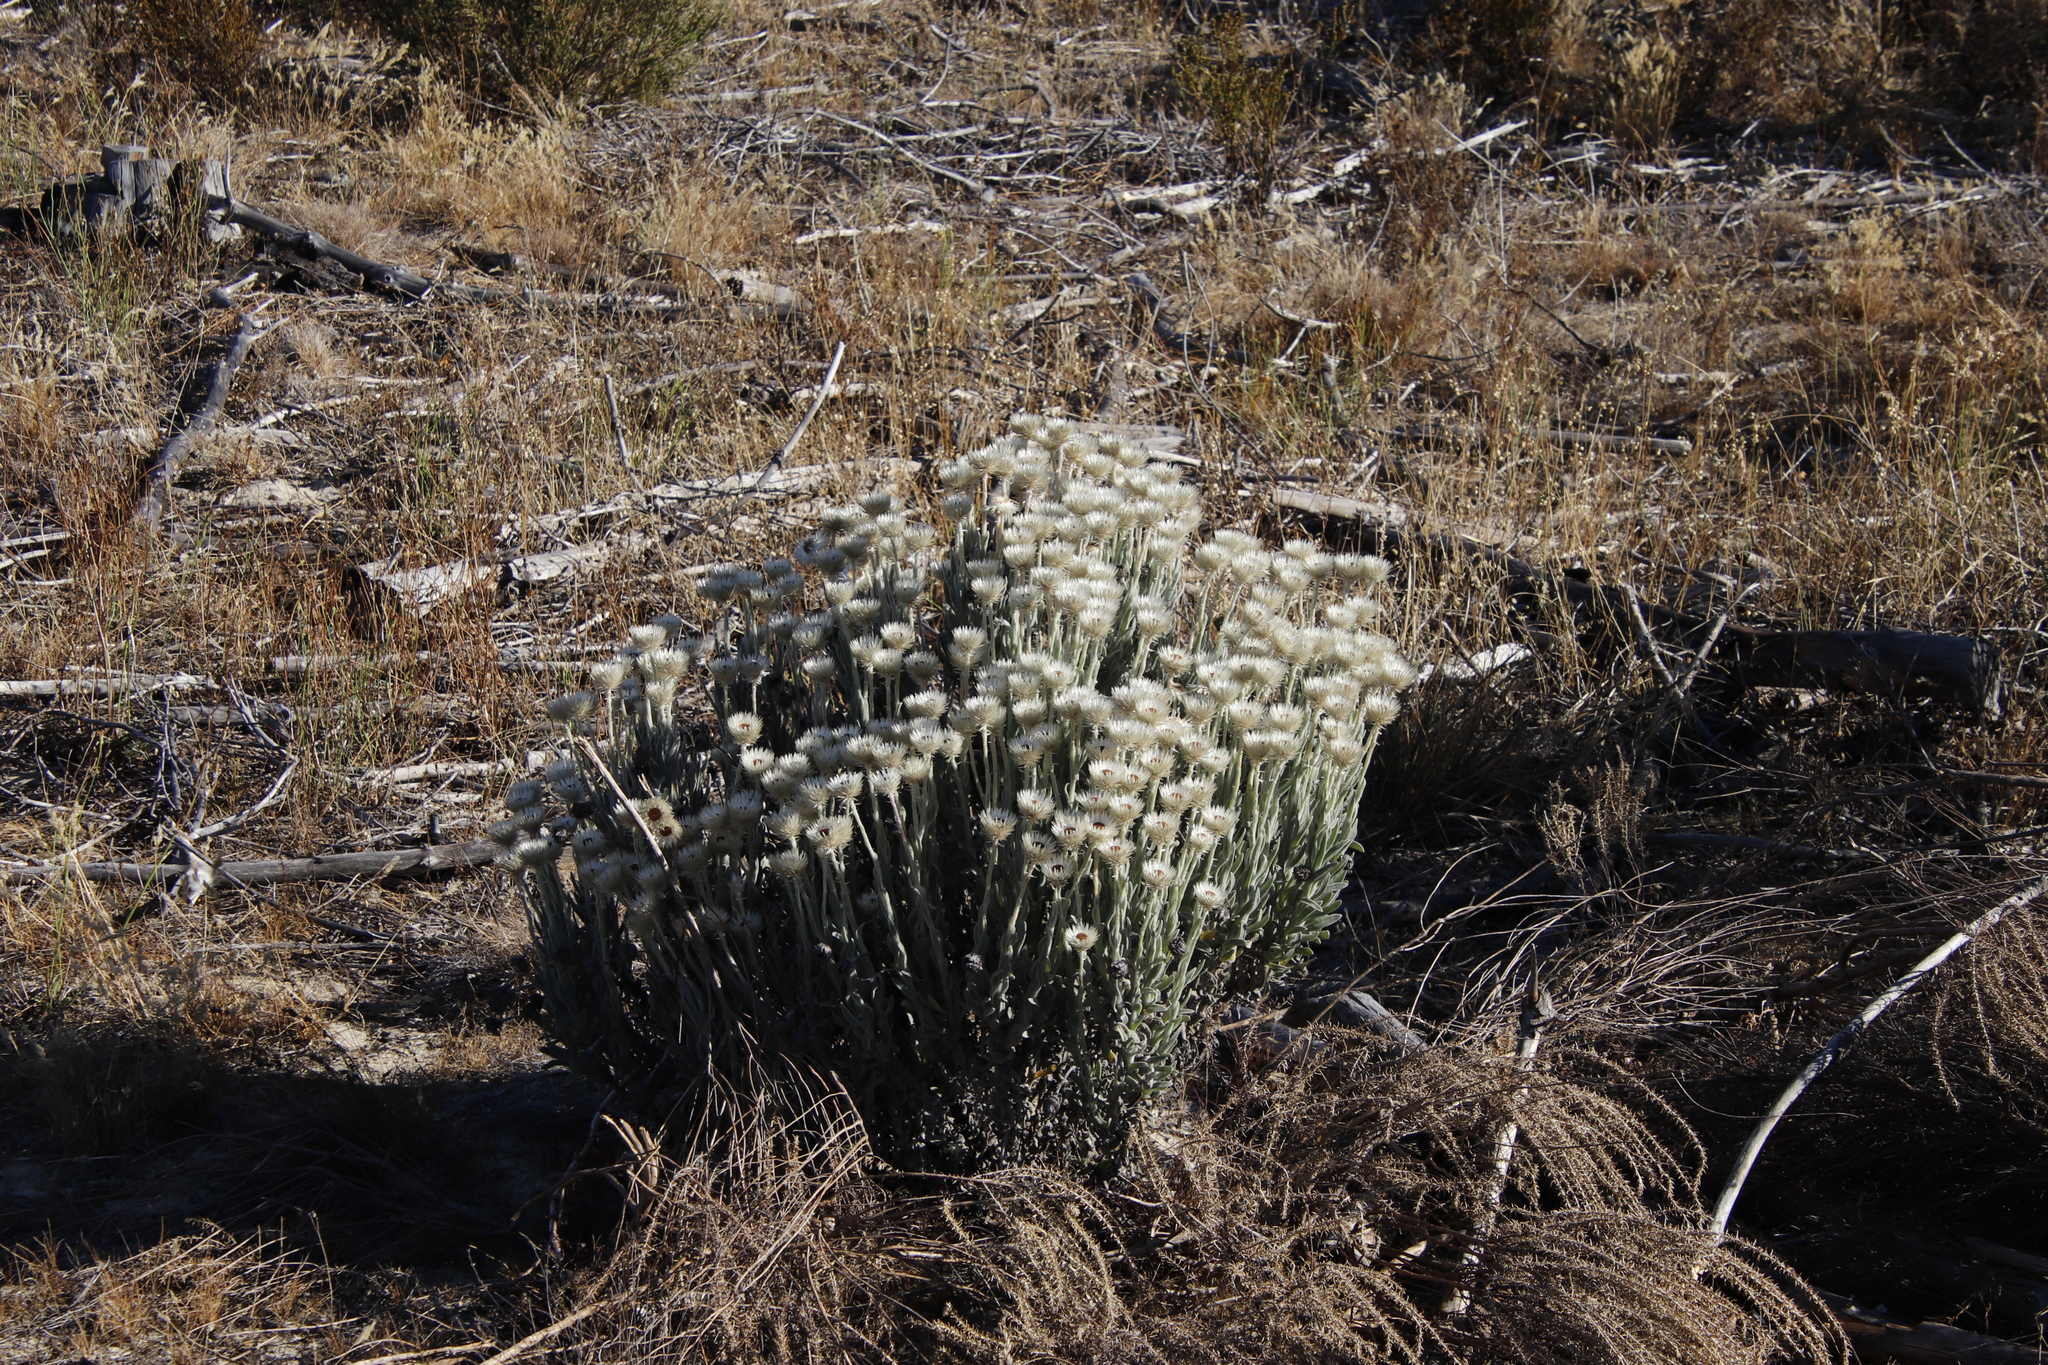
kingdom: Plantae
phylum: Tracheophyta
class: Magnoliopsida
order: Asterales
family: Asteraceae
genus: Syncarpha
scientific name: Syncarpha vestita
